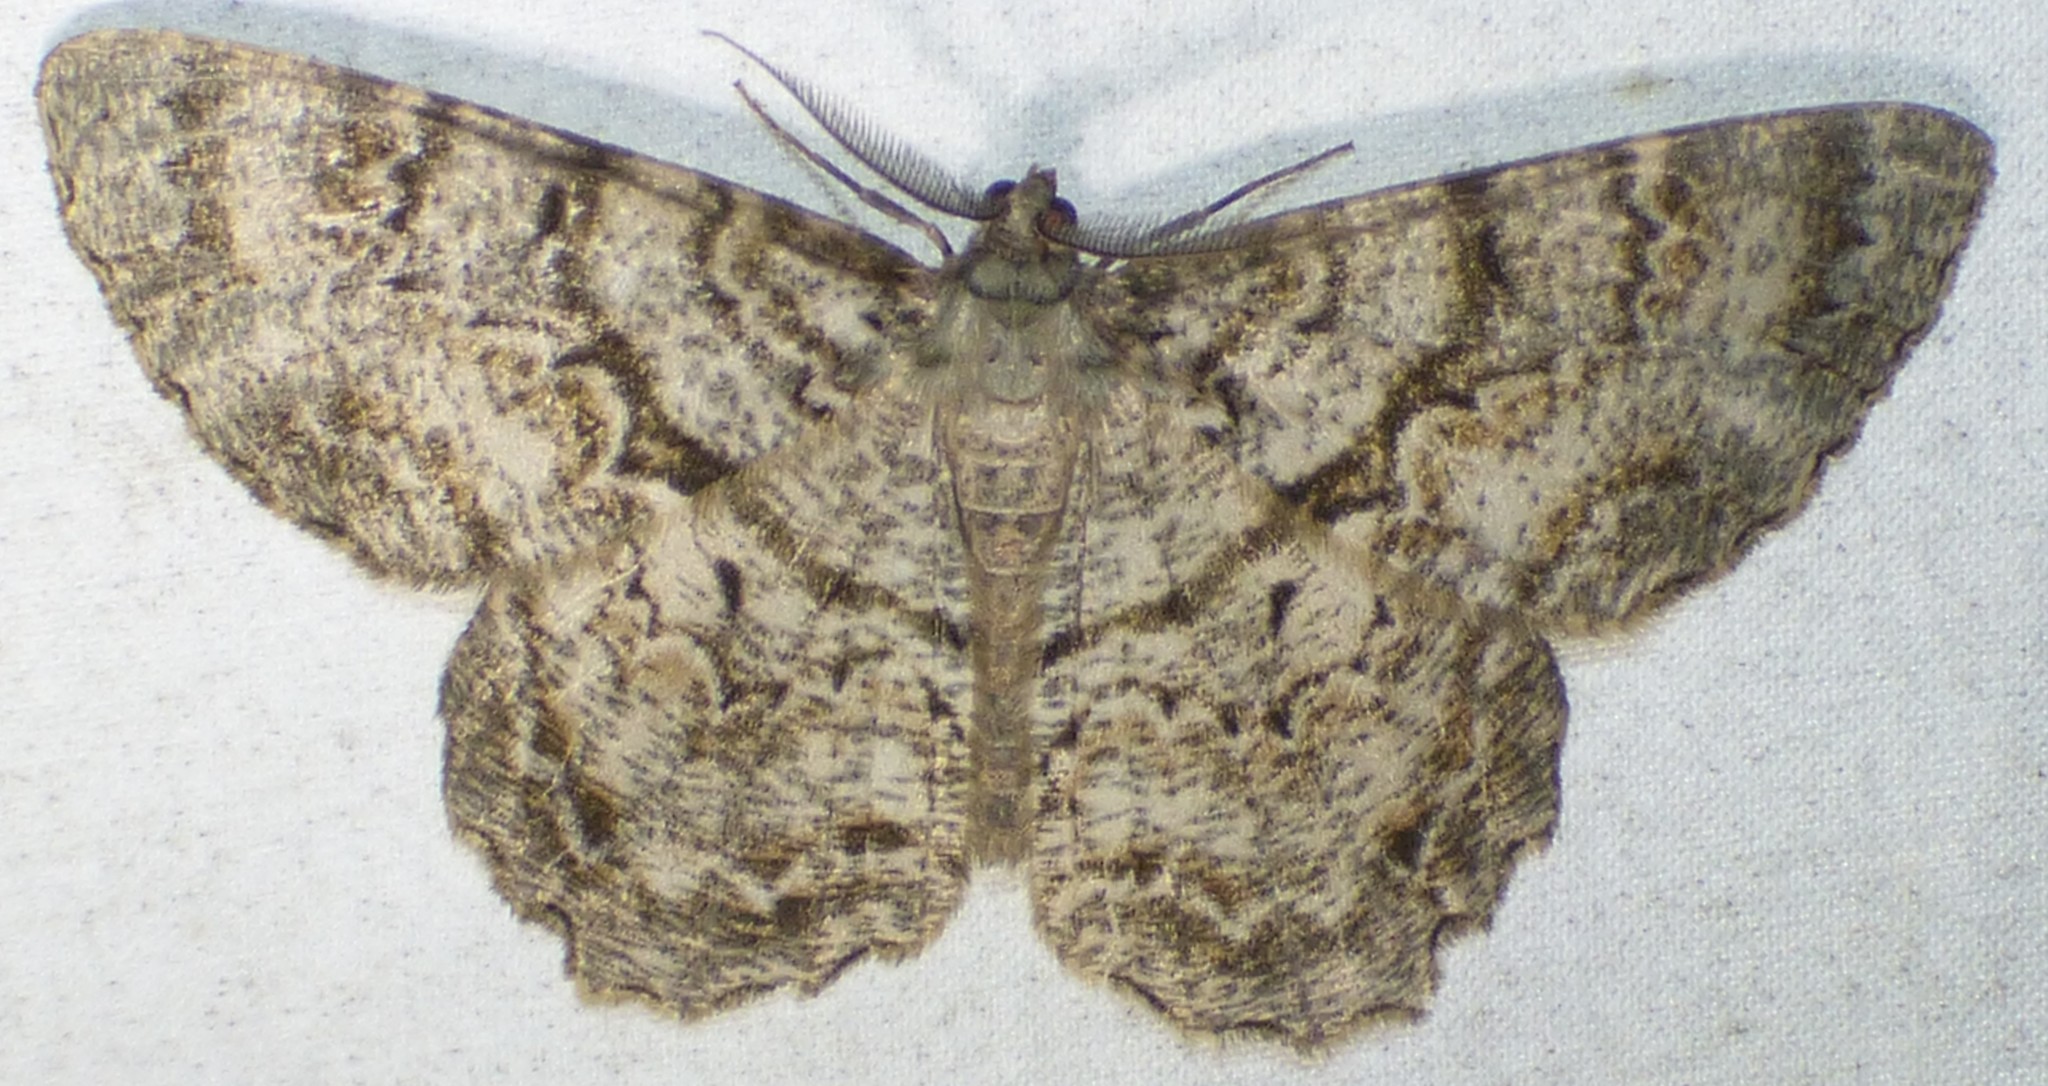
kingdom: Animalia
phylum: Arthropoda
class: Insecta
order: Lepidoptera
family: Geometridae
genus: Epimecis
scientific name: Epimecis hortaria
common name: Tulip-tree beauty
